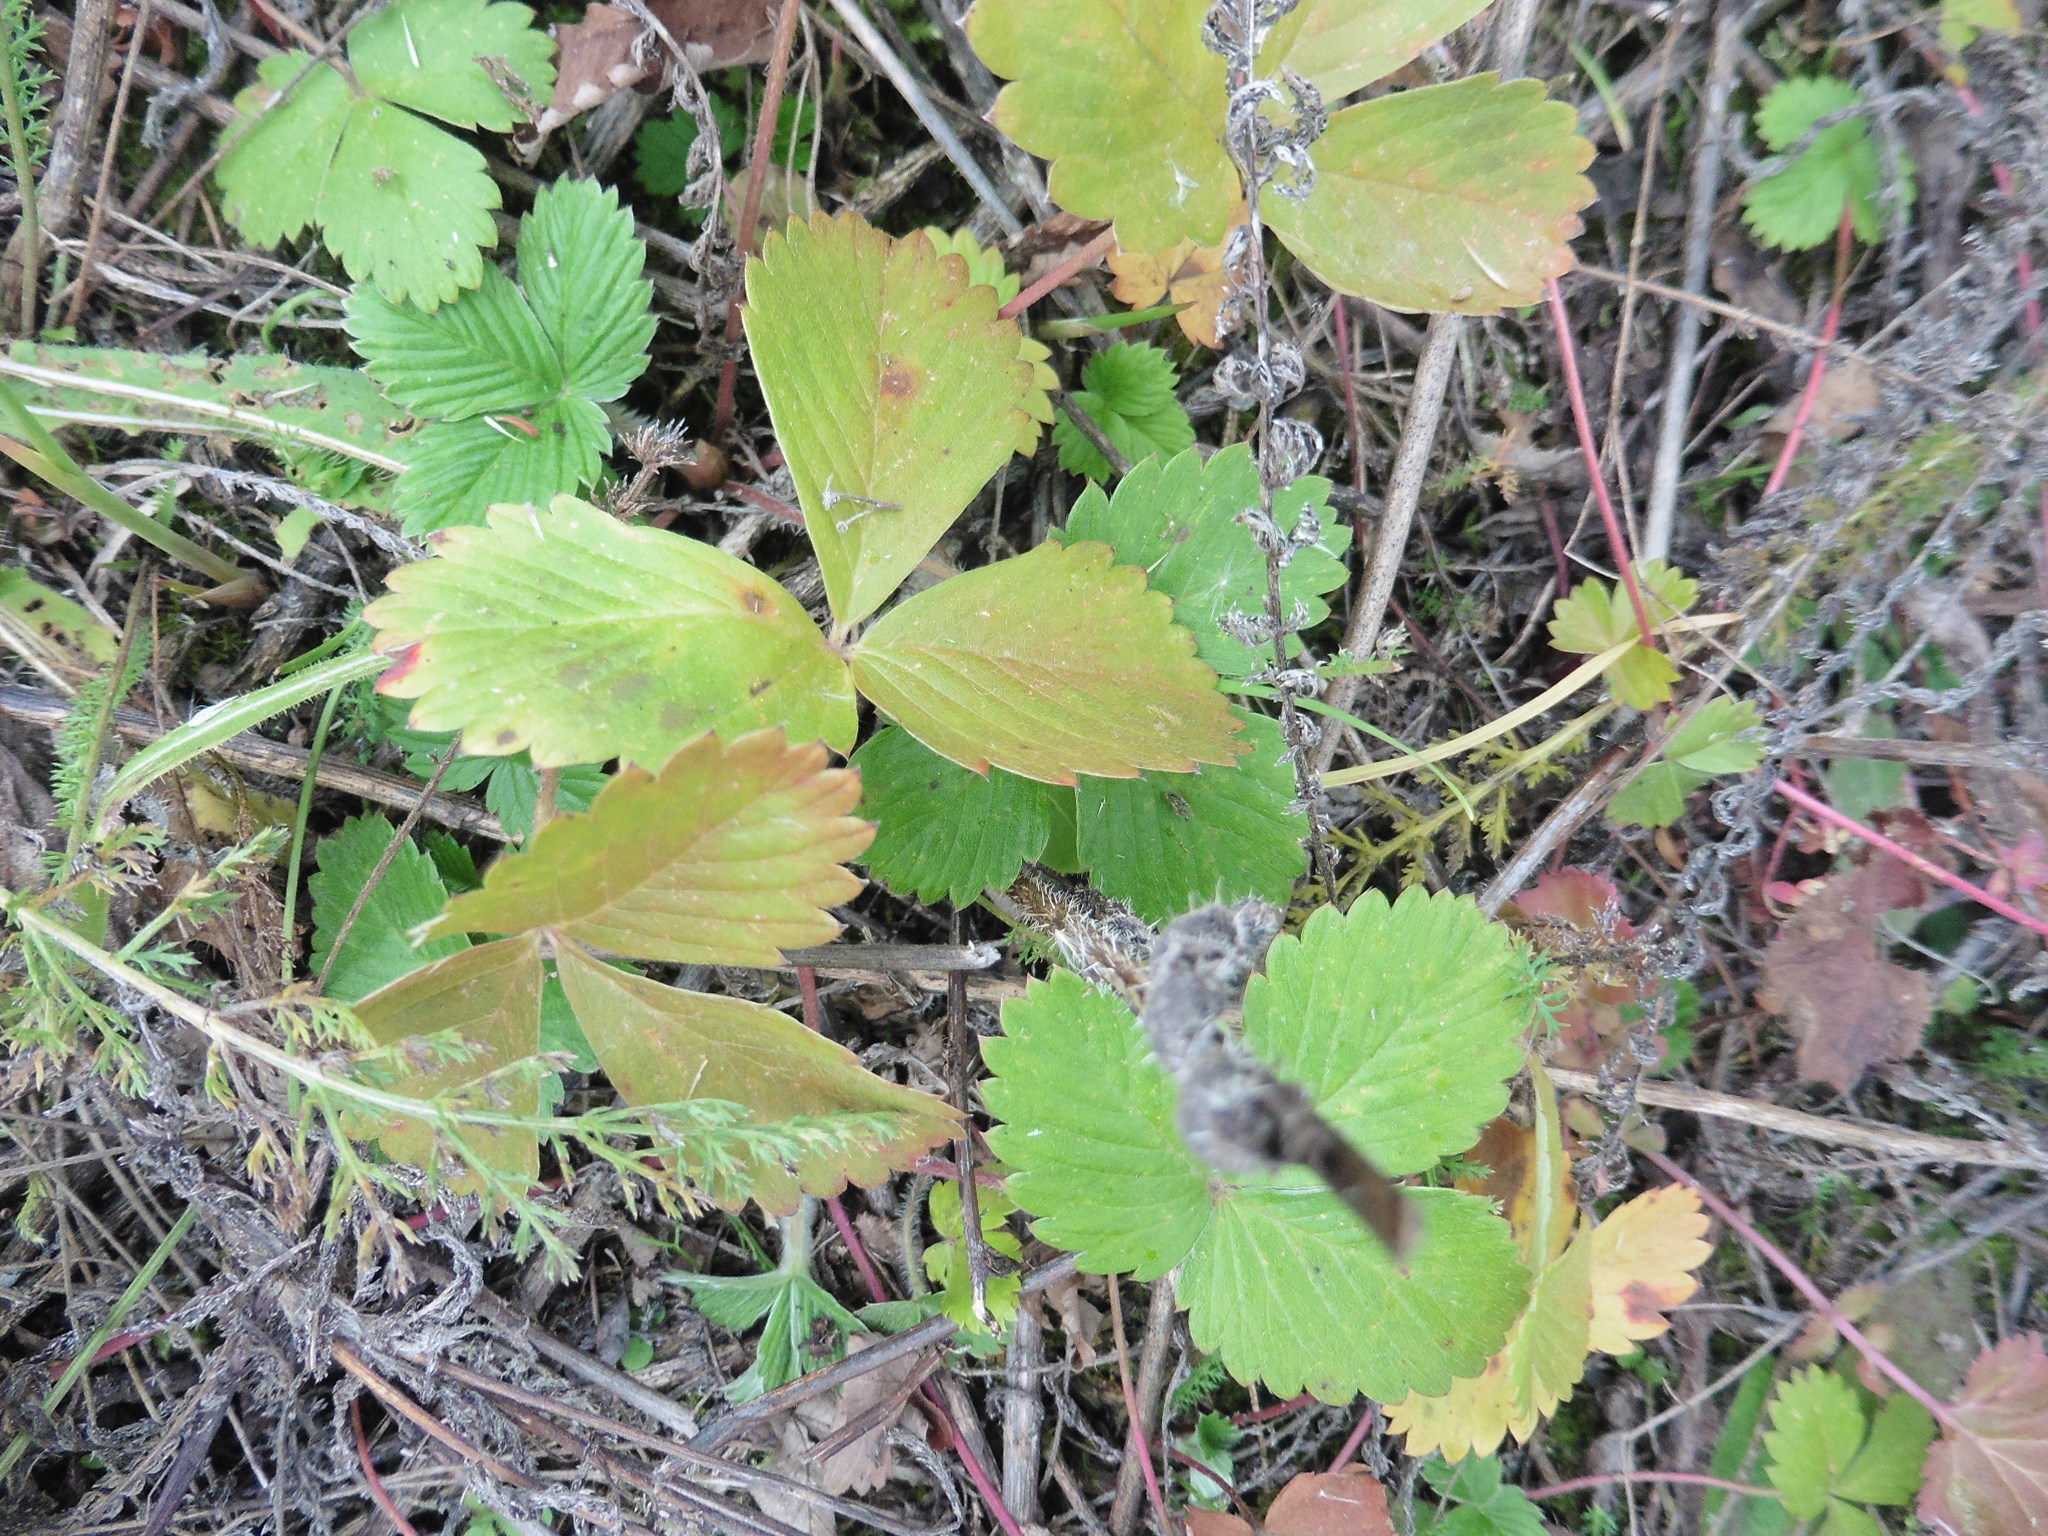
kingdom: Plantae
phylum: Tracheophyta
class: Magnoliopsida
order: Rosales
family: Rosaceae
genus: Fragaria
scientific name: Fragaria viridis
